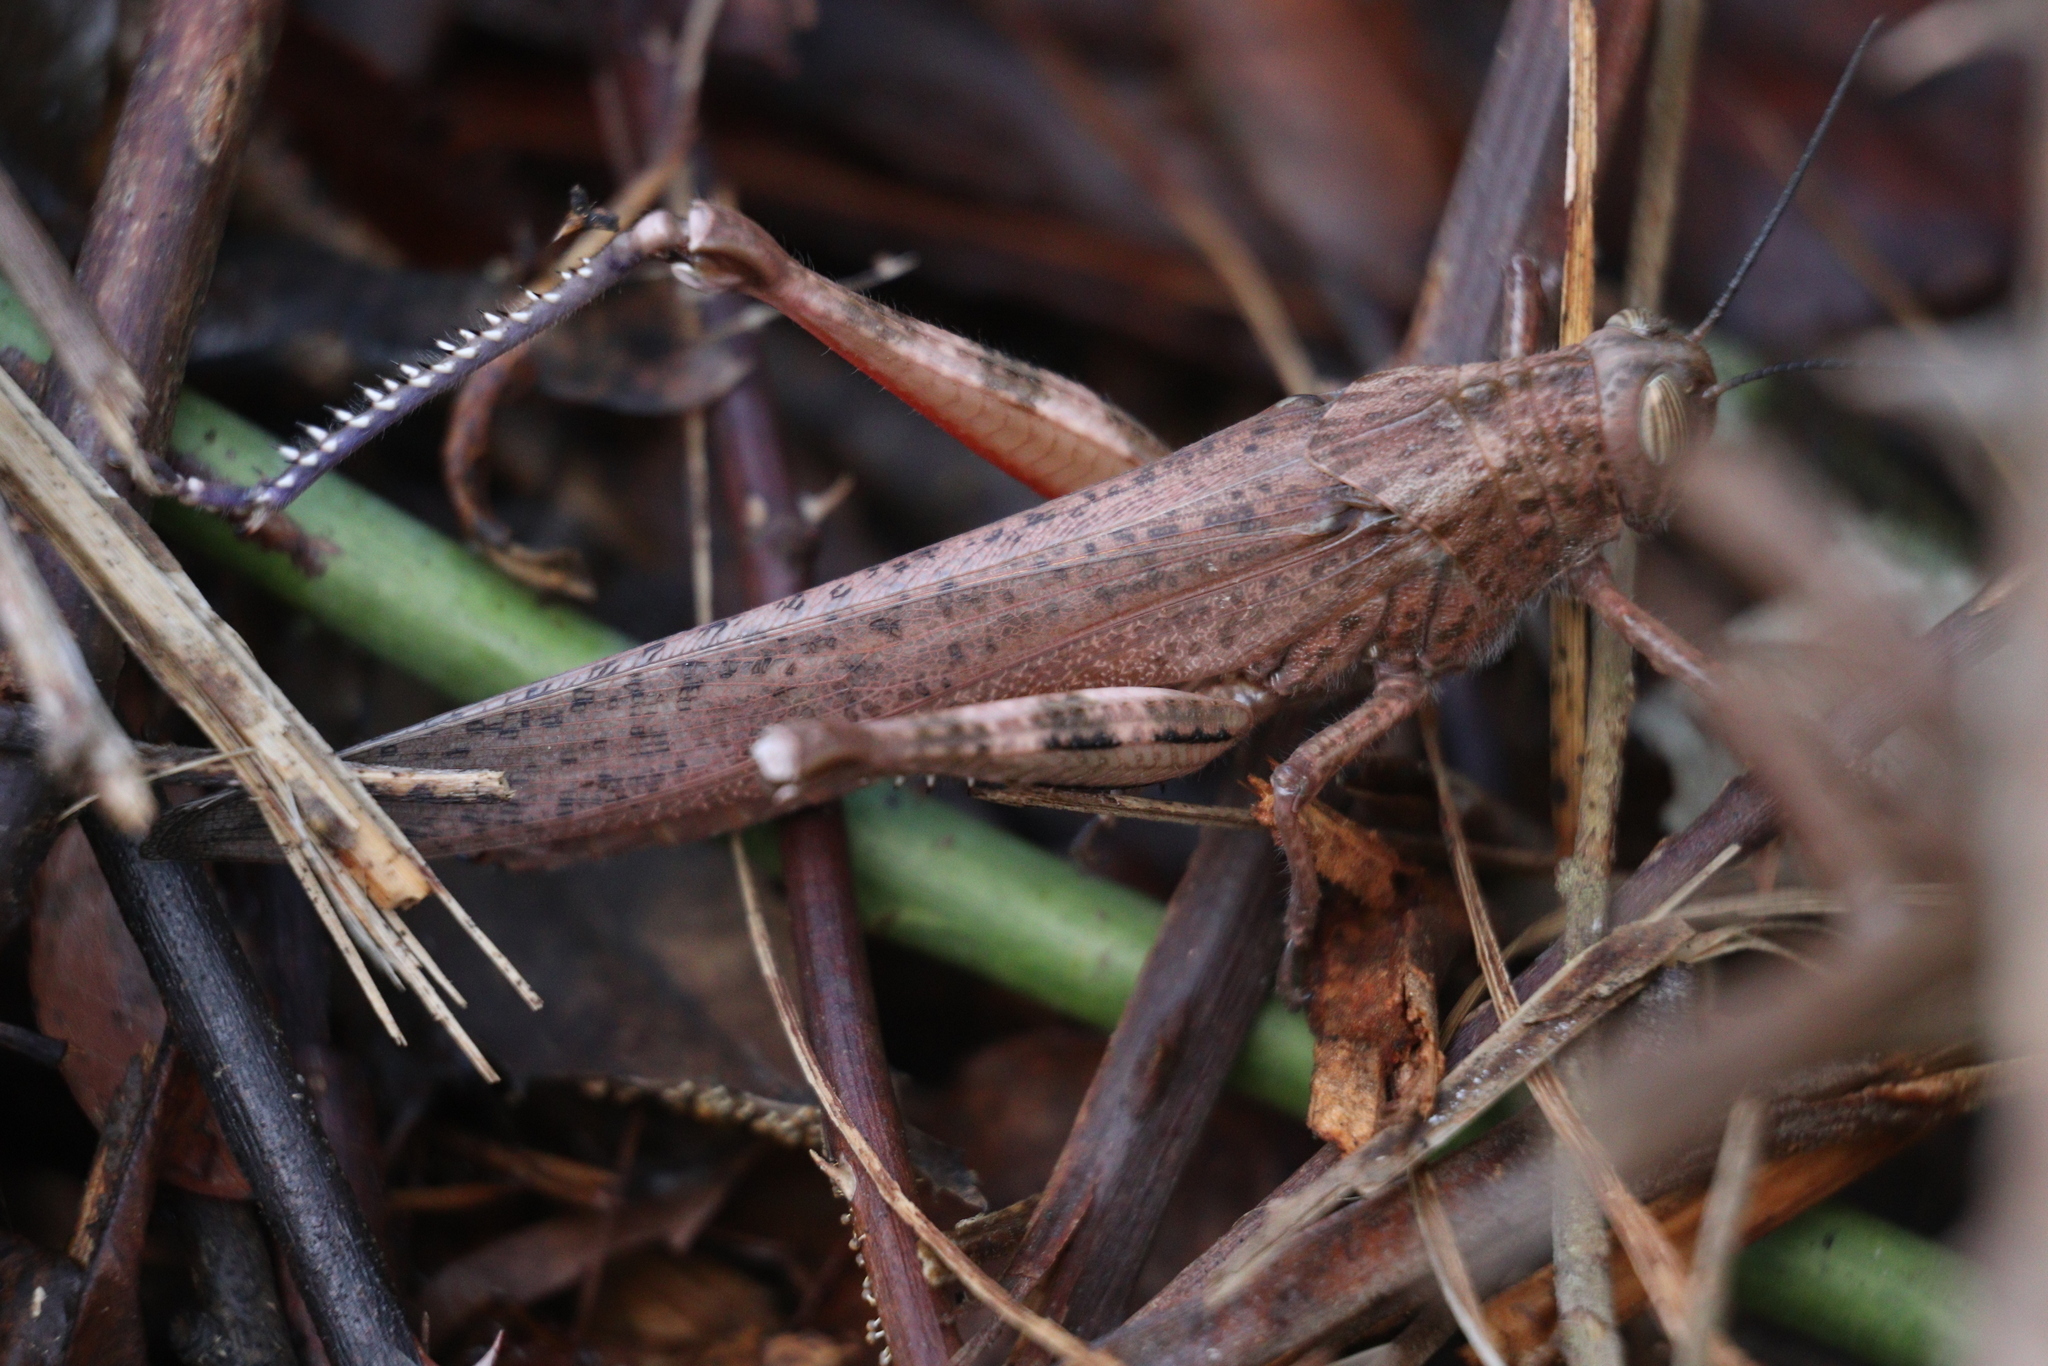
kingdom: Animalia
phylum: Arthropoda
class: Insecta
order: Orthoptera
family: Acrididae
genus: Anacridium
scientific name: Anacridium aegyptium
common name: Egyptian grasshopper
